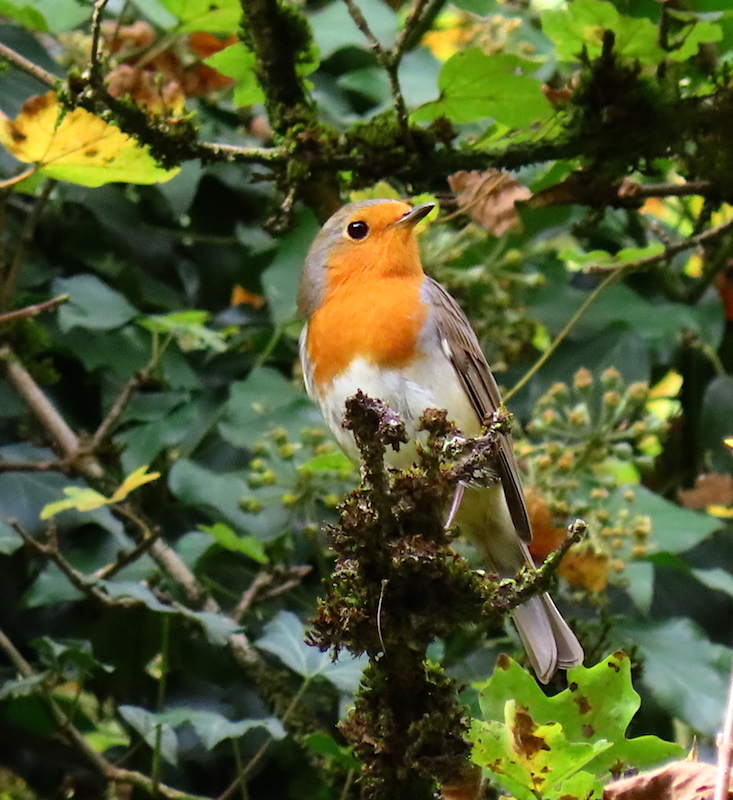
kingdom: Animalia
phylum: Chordata
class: Aves
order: Passeriformes
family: Muscicapidae
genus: Erithacus
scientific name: Erithacus rubecula
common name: European robin
